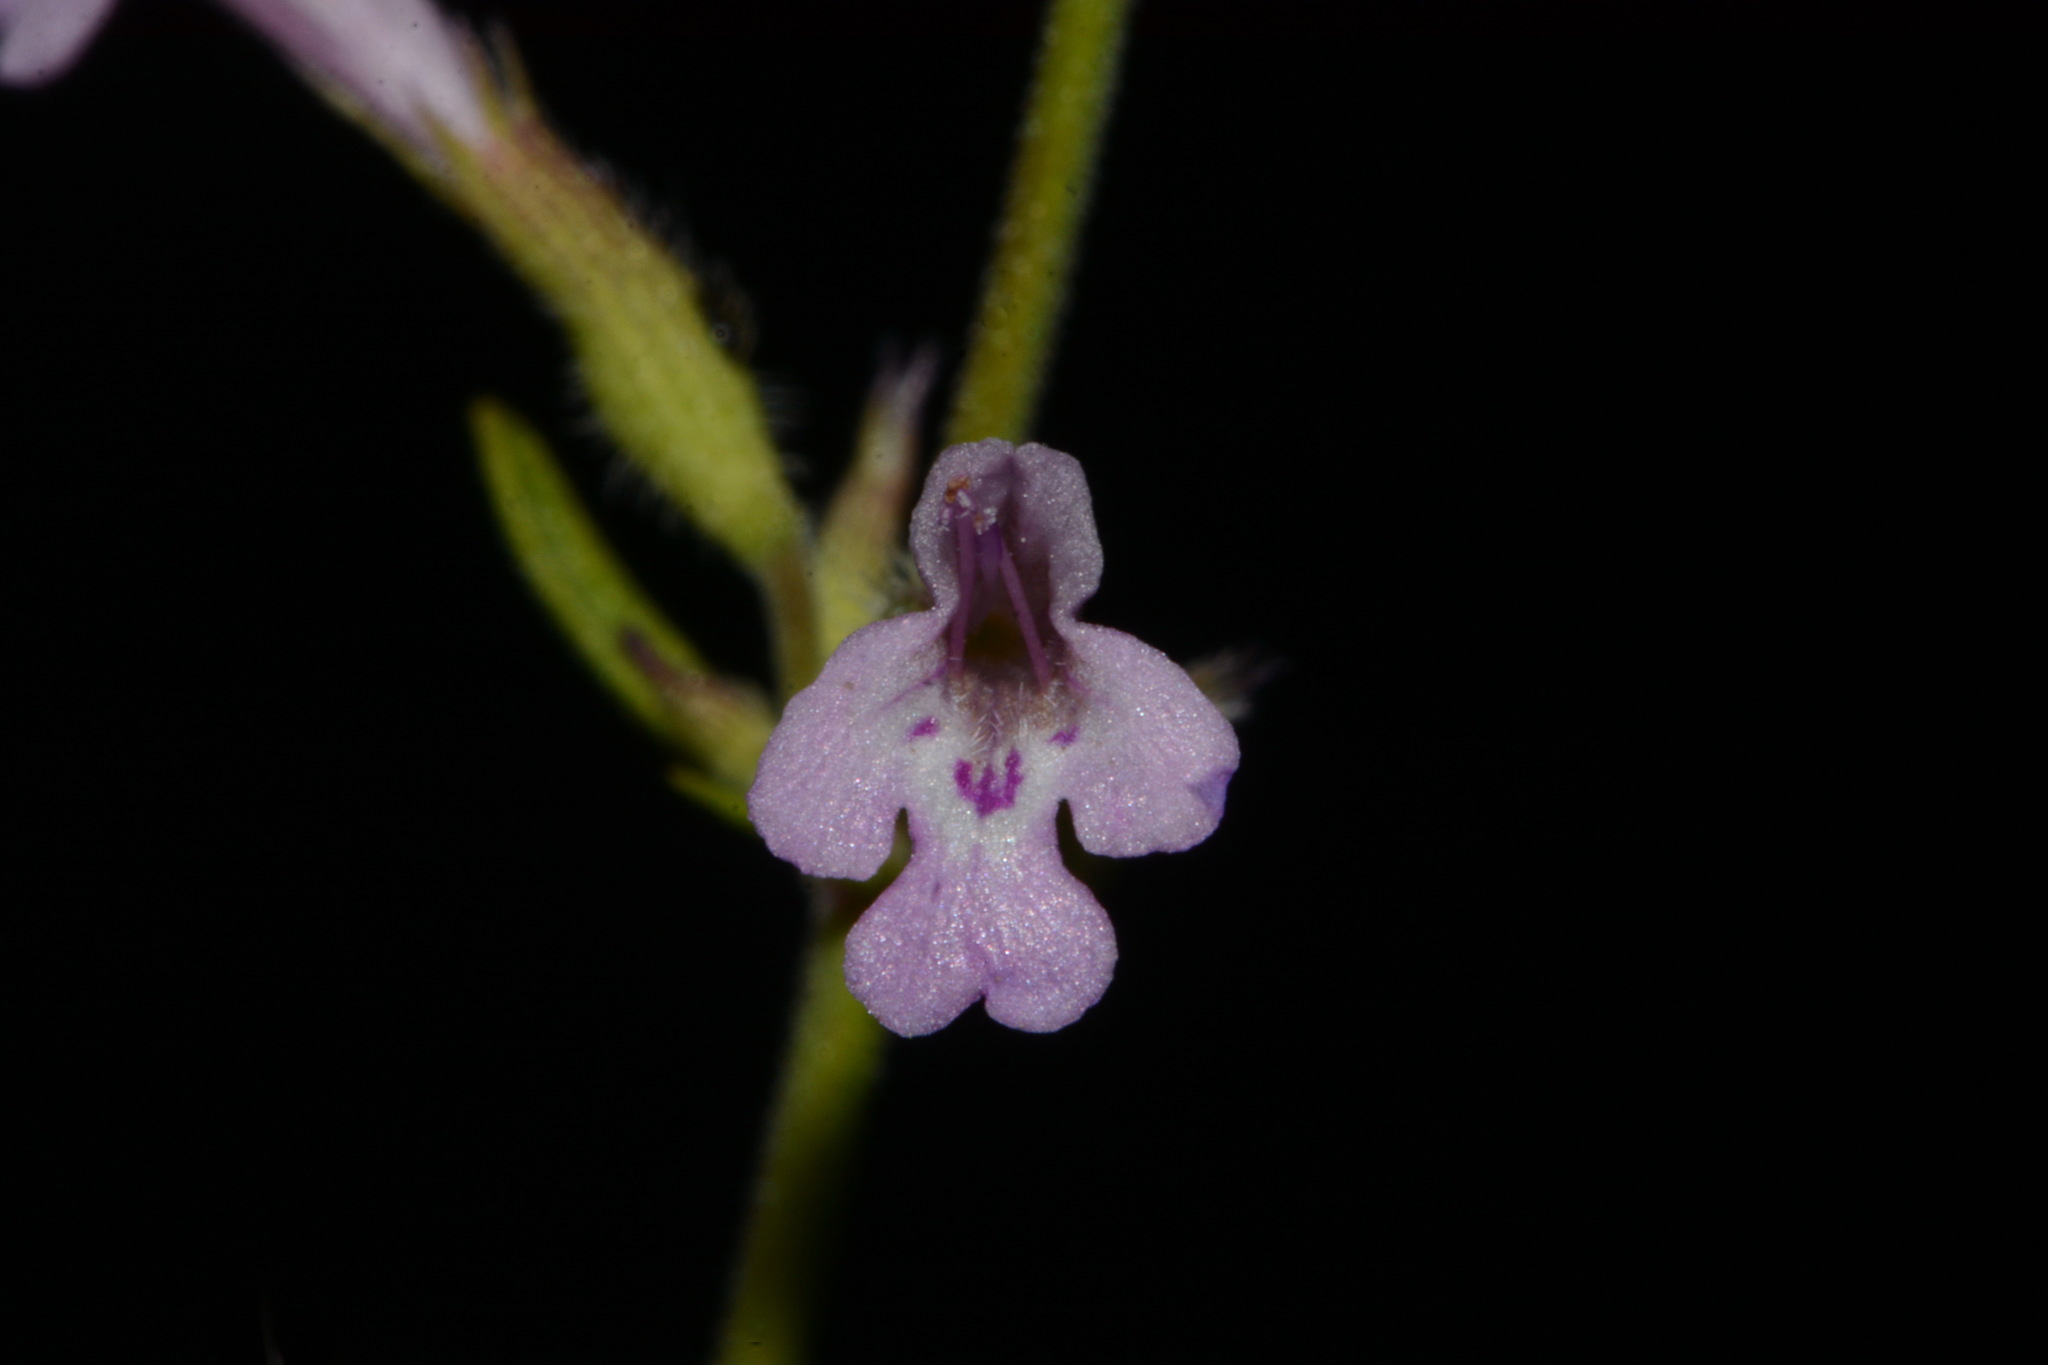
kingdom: Plantae
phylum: Tracheophyta
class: Magnoliopsida
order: Lamiales
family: Lamiaceae
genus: Hedeoma
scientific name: Hedeoma drummondii
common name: New mexico pennyroyal
